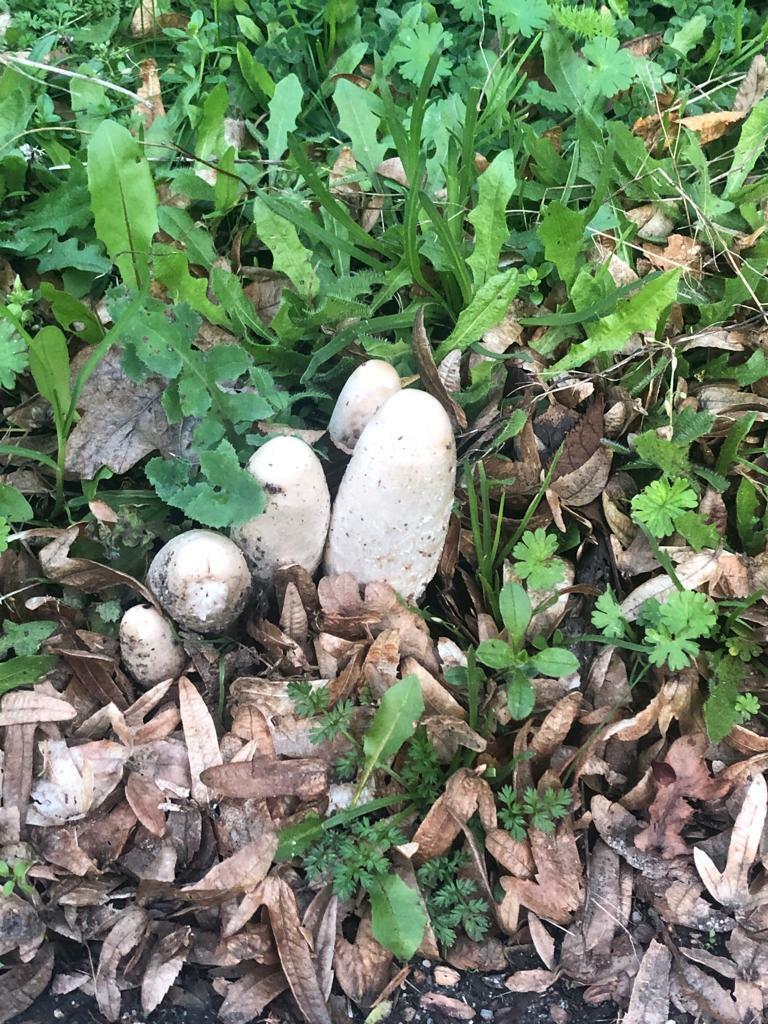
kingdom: Fungi
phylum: Basidiomycota
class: Agaricomycetes
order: Agaricales
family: Agaricaceae
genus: Coprinus
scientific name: Coprinus comatus
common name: Lawyer's wig
